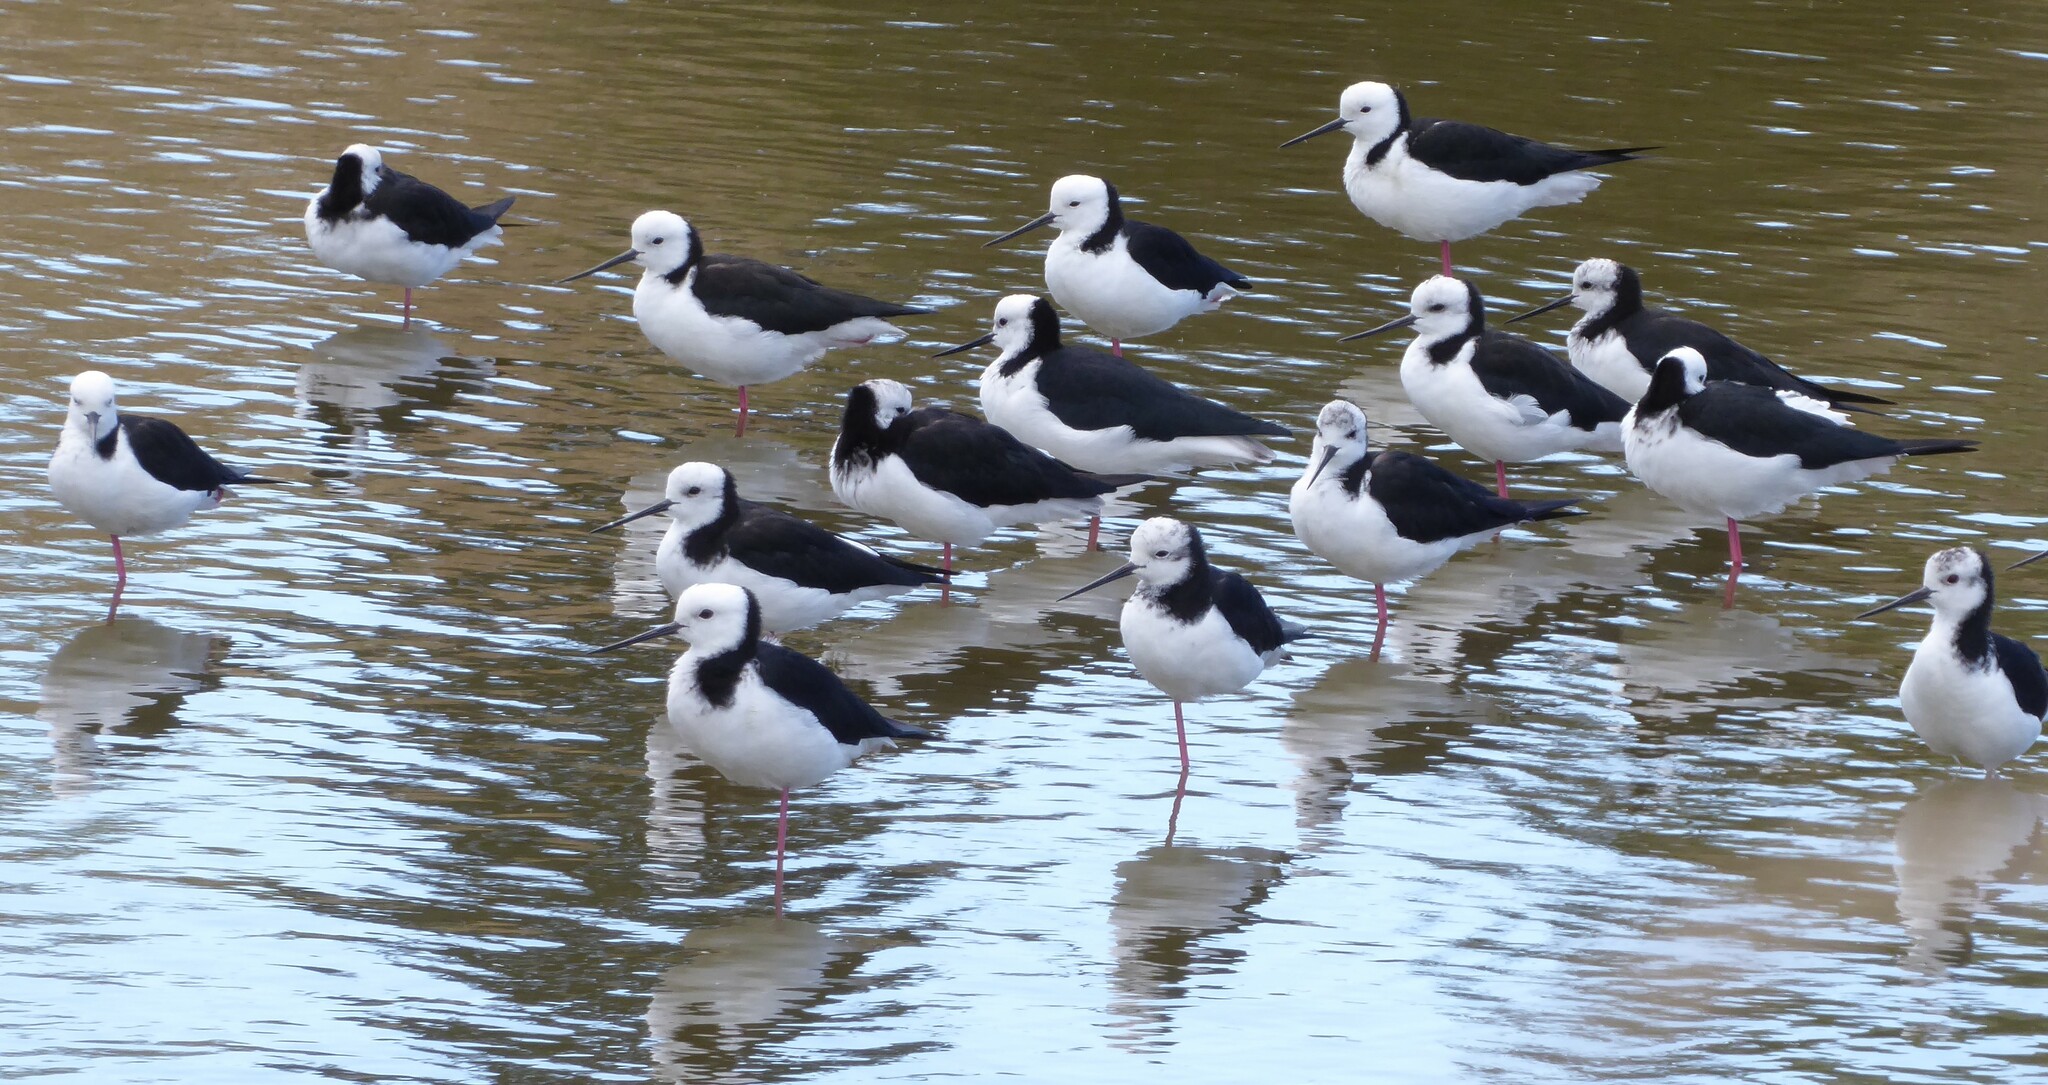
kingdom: Animalia
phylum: Chordata
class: Aves
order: Charadriiformes
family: Recurvirostridae
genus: Himantopus
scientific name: Himantopus leucocephalus
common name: White-headed stilt
